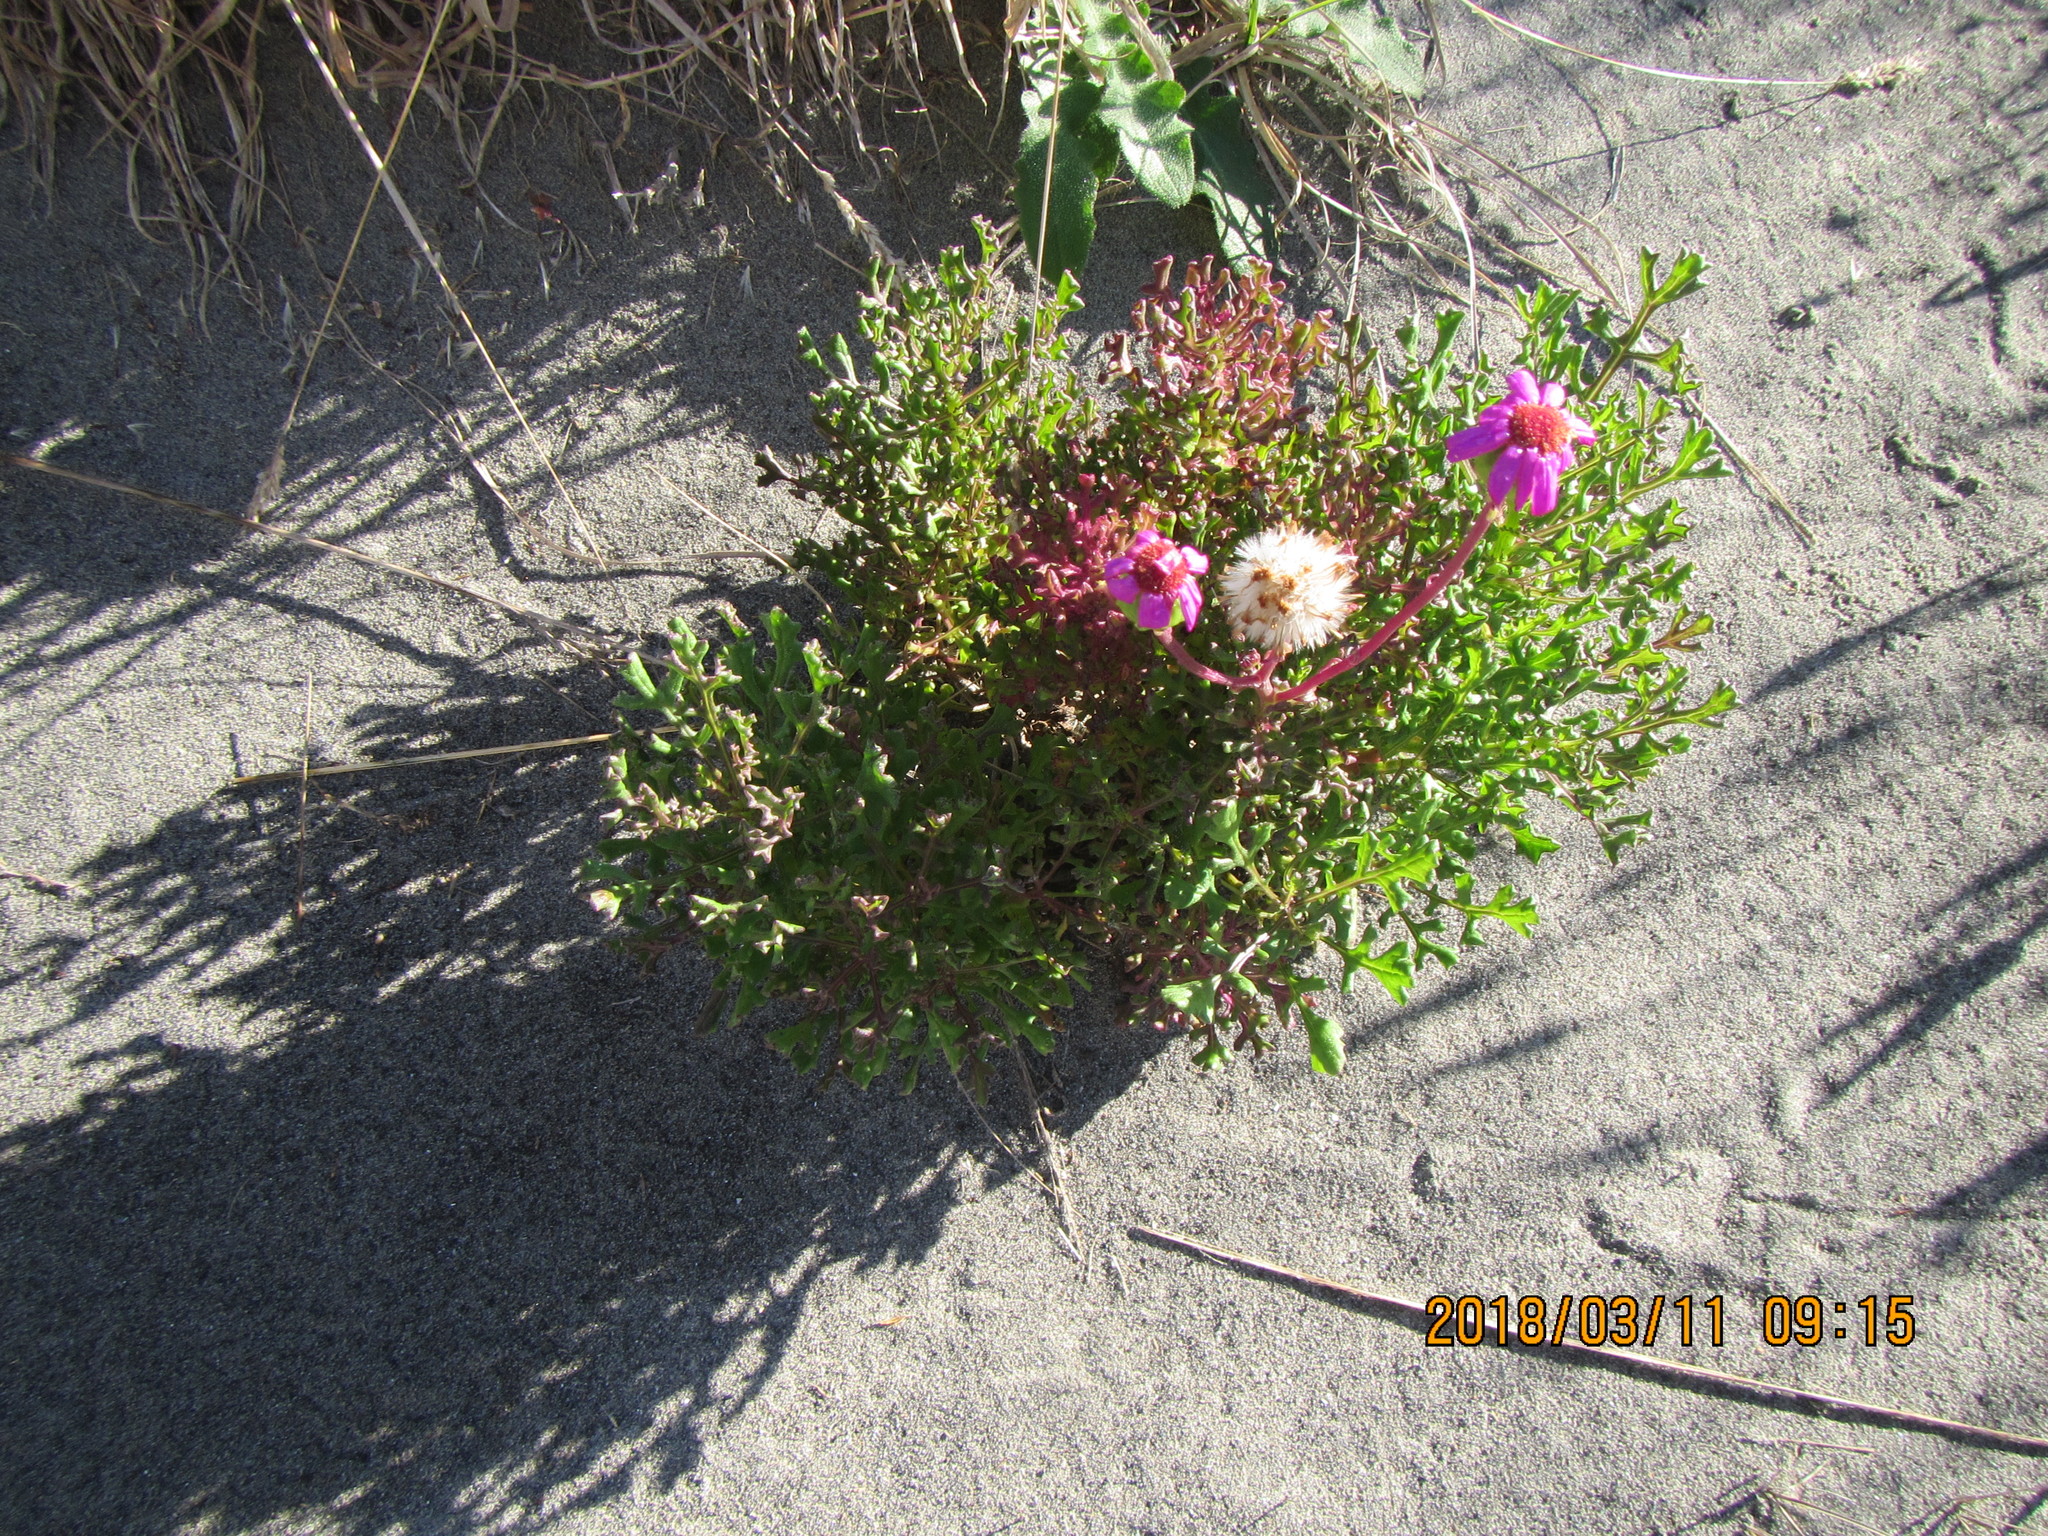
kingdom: Plantae
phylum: Tracheophyta
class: Magnoliopsida
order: Asterales
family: Asteraceae
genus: Senecio
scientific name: Senecio elegans
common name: Purple groundsel
